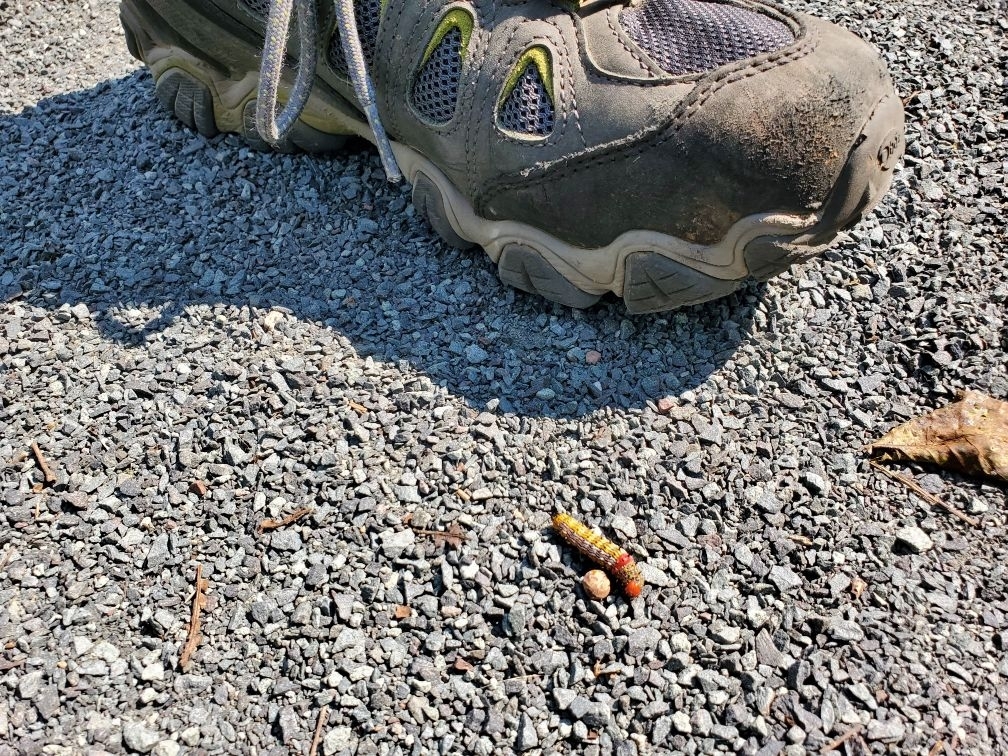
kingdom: Animalia
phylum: Arthropoda
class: Insecta
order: Lepidoptera
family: Notodontidae
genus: Schizura
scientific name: Schizura
